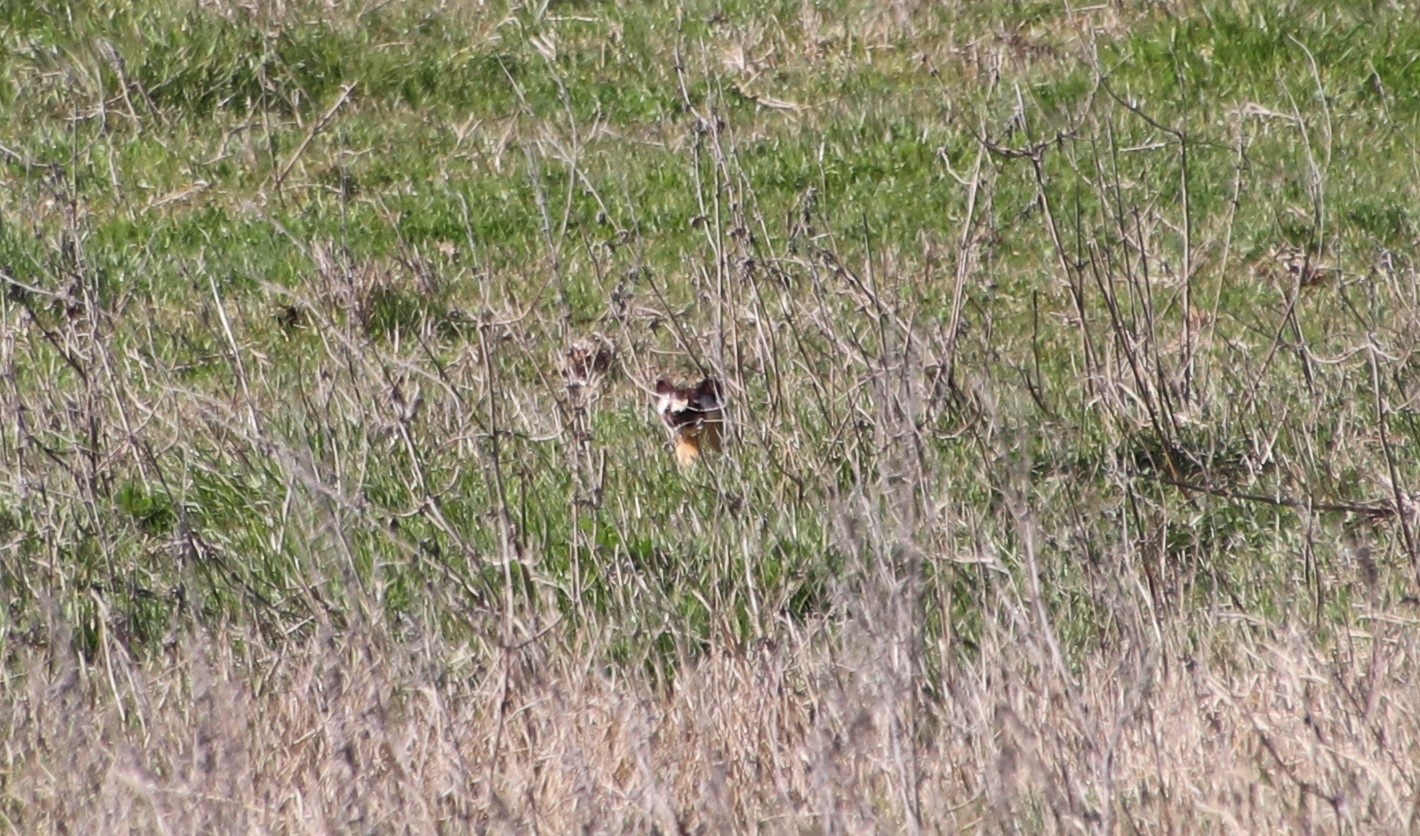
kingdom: Animalia
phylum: Chordata
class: Mammalia
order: Carnivora
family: Mustelidae
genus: Mustela
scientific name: Mustela
